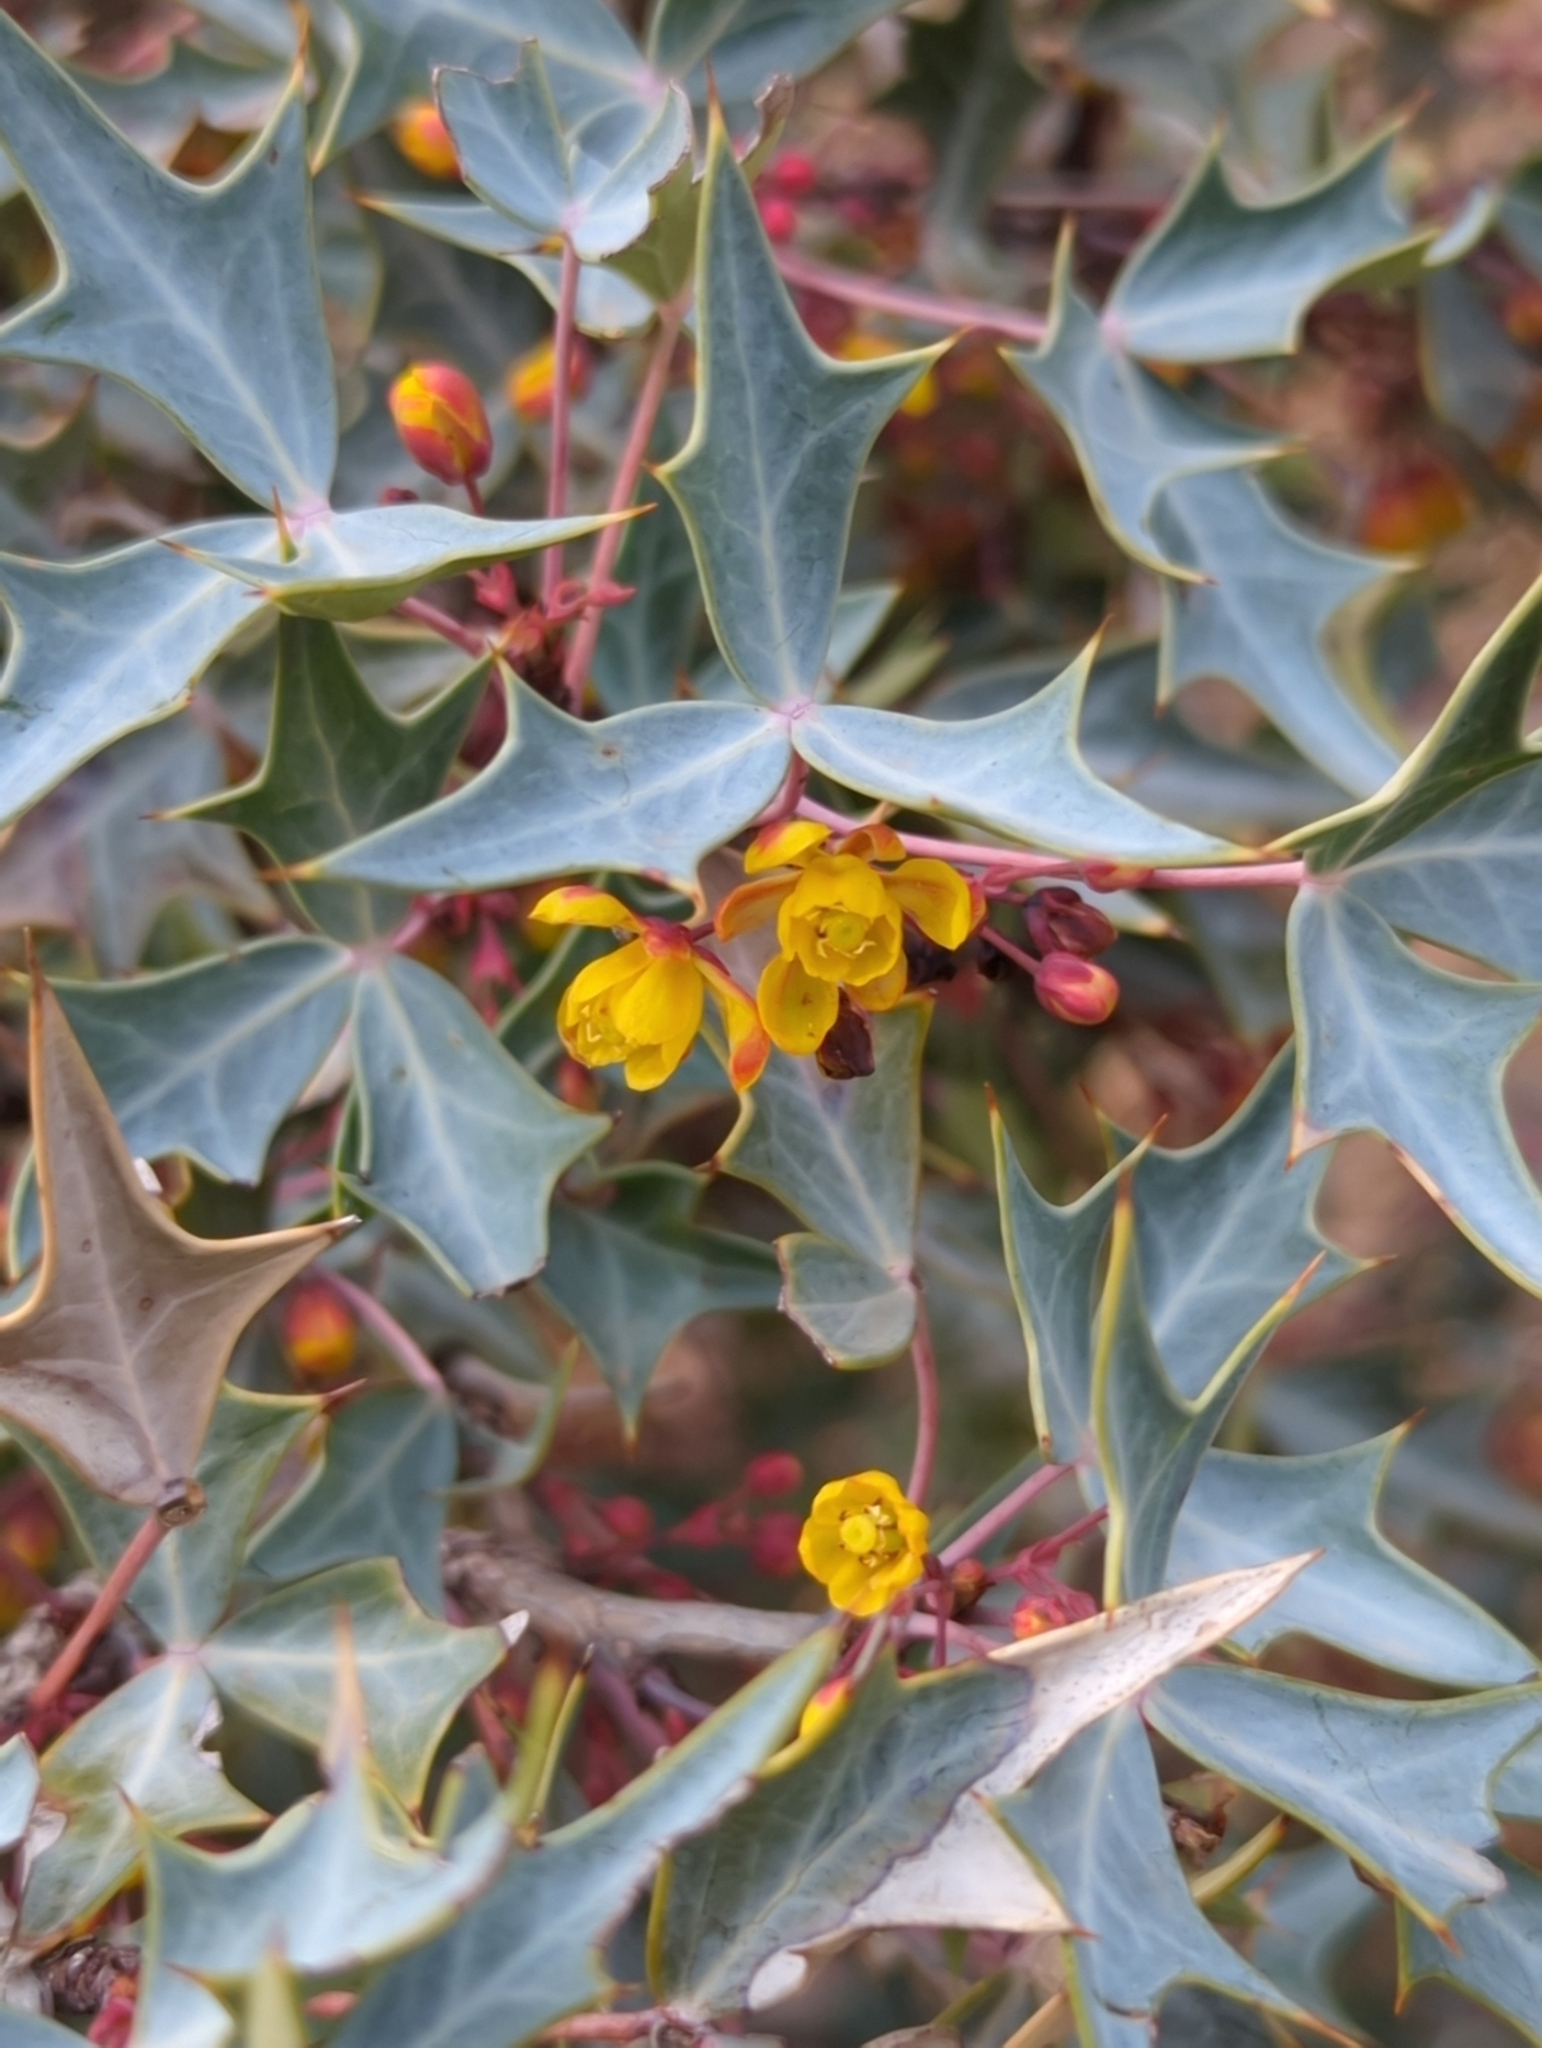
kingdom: Plantae
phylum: Tracheophyta
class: Magnoliopsida
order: Ranunculales
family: Berberidaceae
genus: Alloberberis
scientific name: Alloberberis trifoliolata
